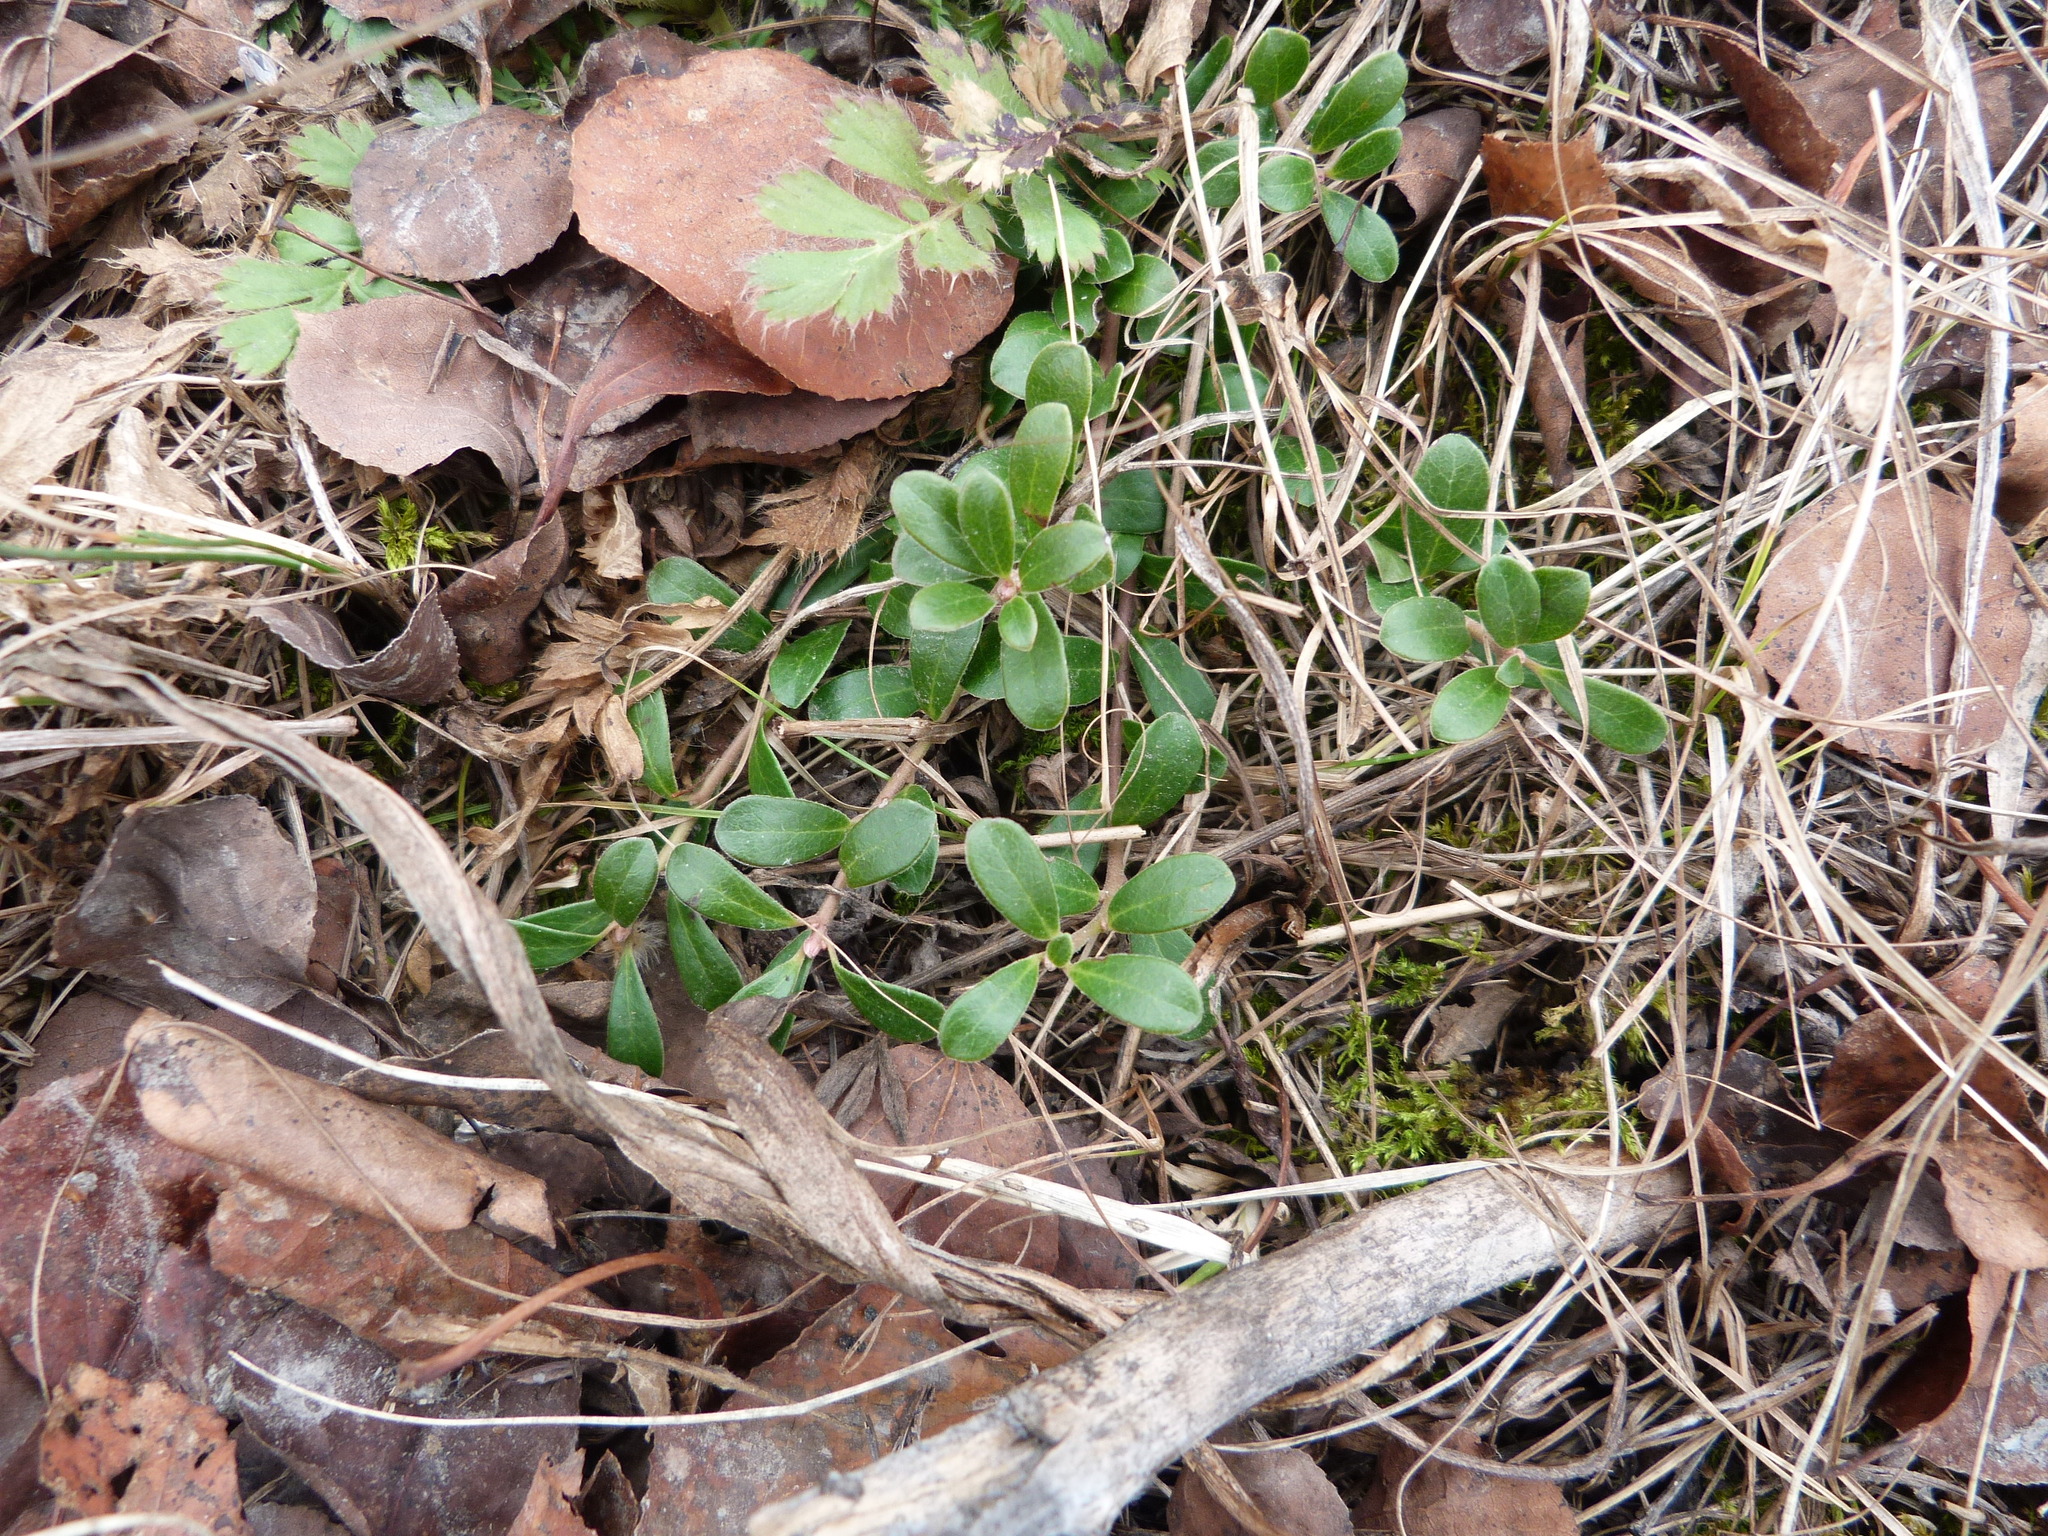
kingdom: Plantae
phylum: Tracheophyta
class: Magnoliopsida
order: Ericales
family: Ericaceae
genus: Arctostaphylos
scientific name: Arctostaphylos uva-ursi
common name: Bearberry
